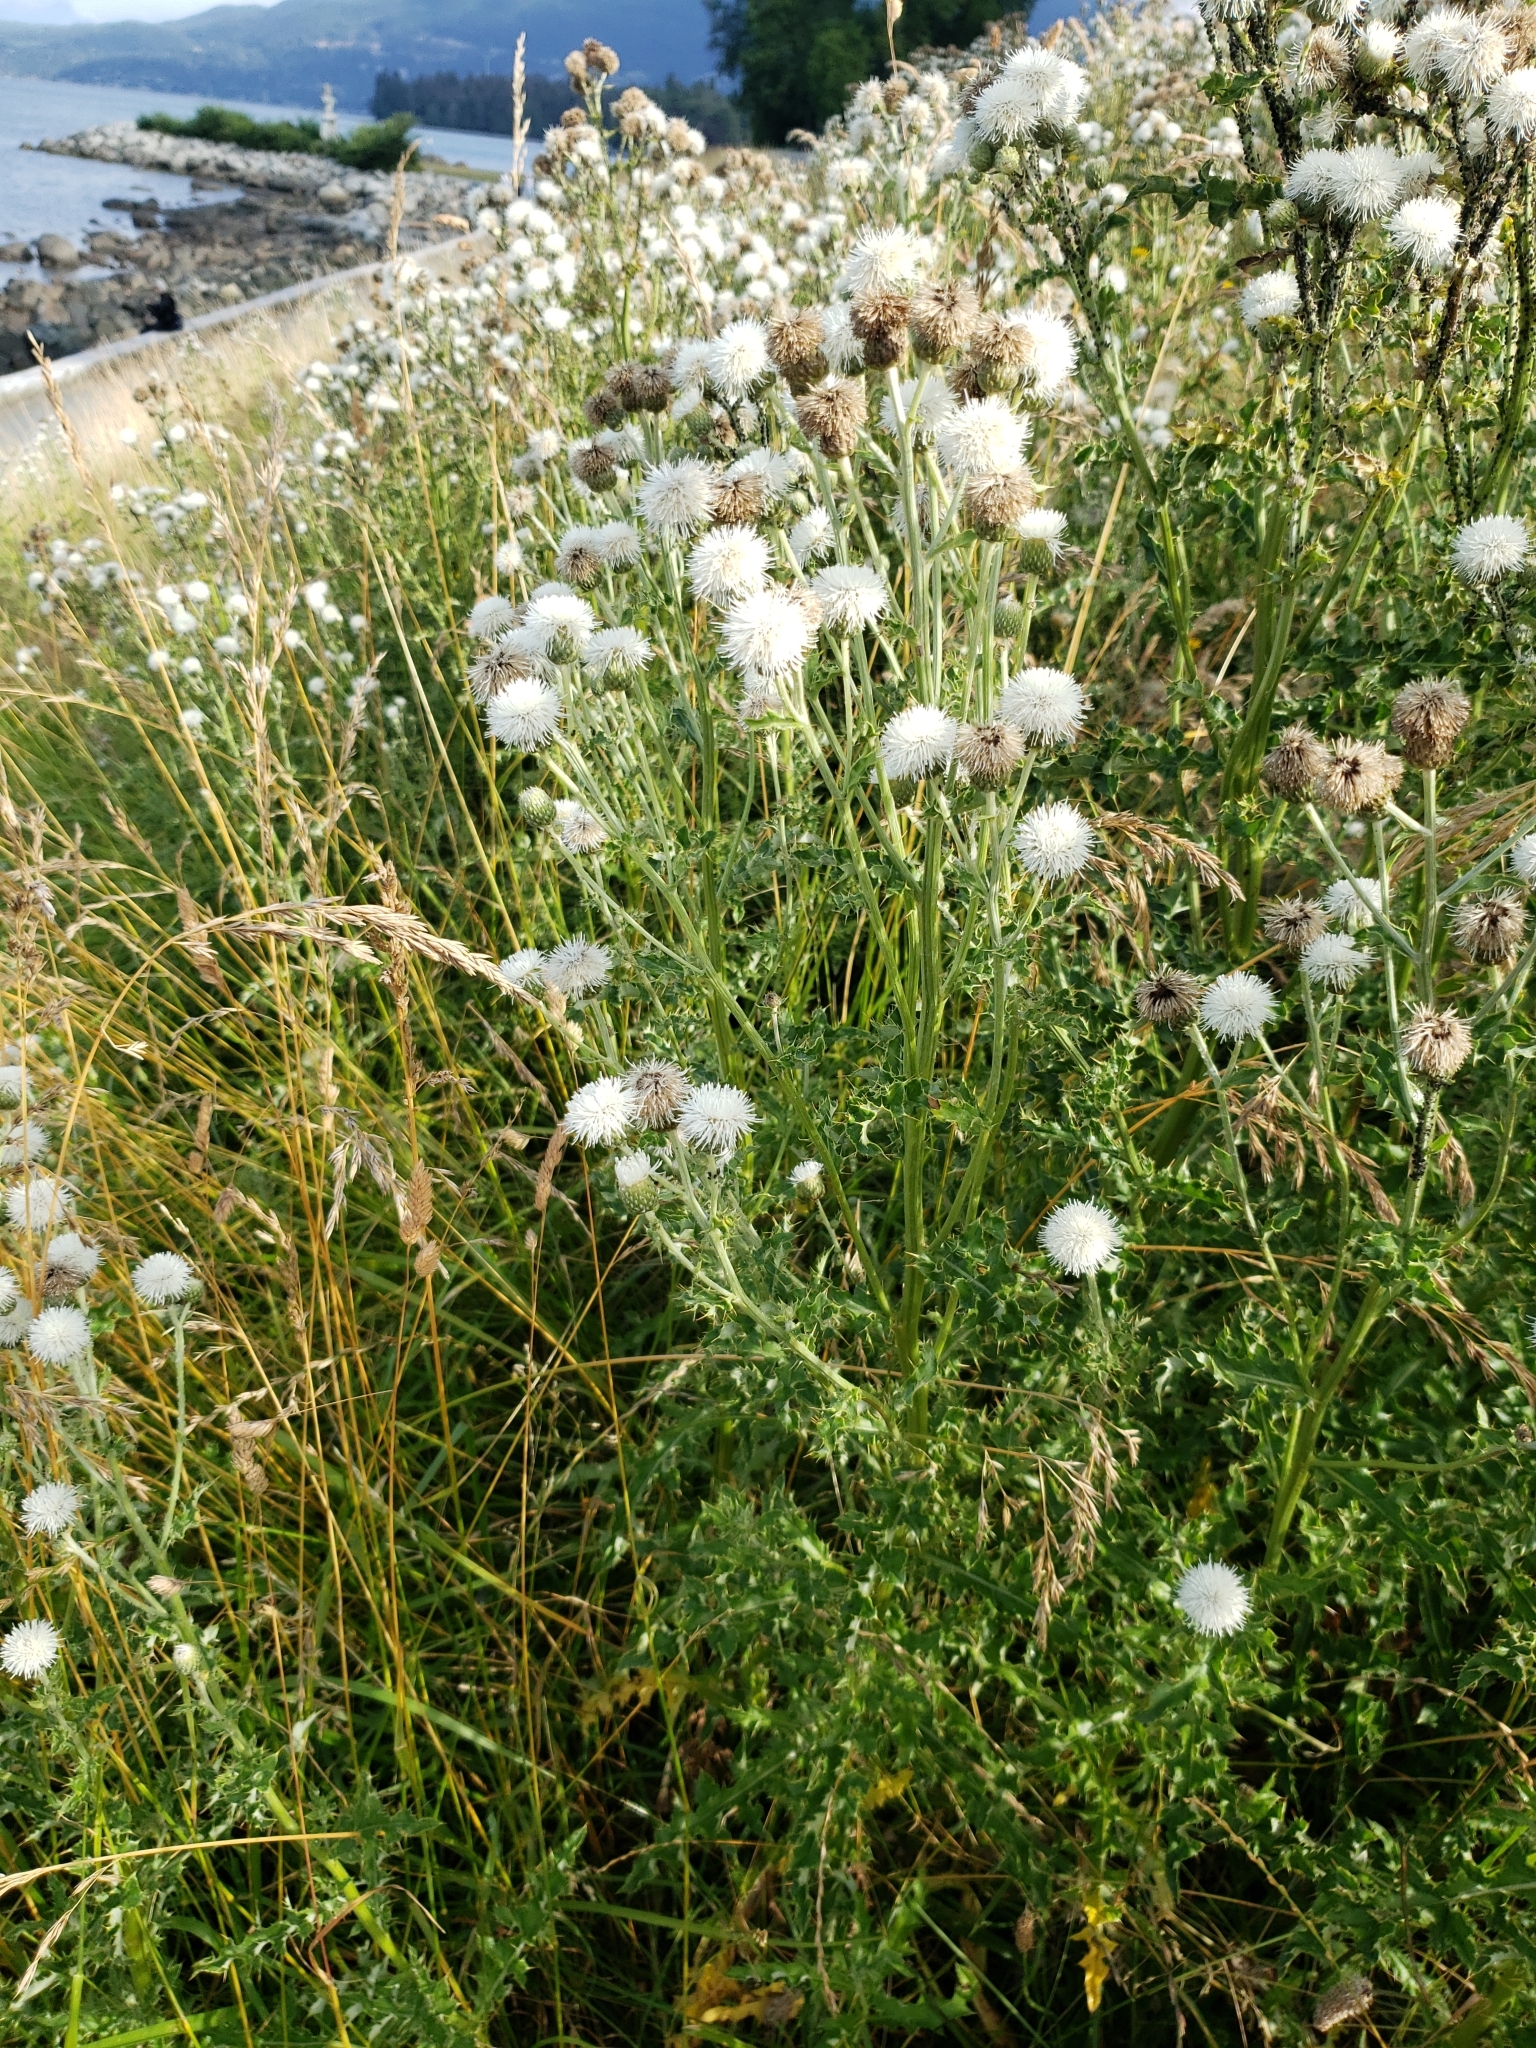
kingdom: Plantae
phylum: Tracheophyta
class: Magnoliopsida
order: Asterales
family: Asteraceae
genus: Cirsium
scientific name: Cirsium arvense
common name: Creeping thistle
